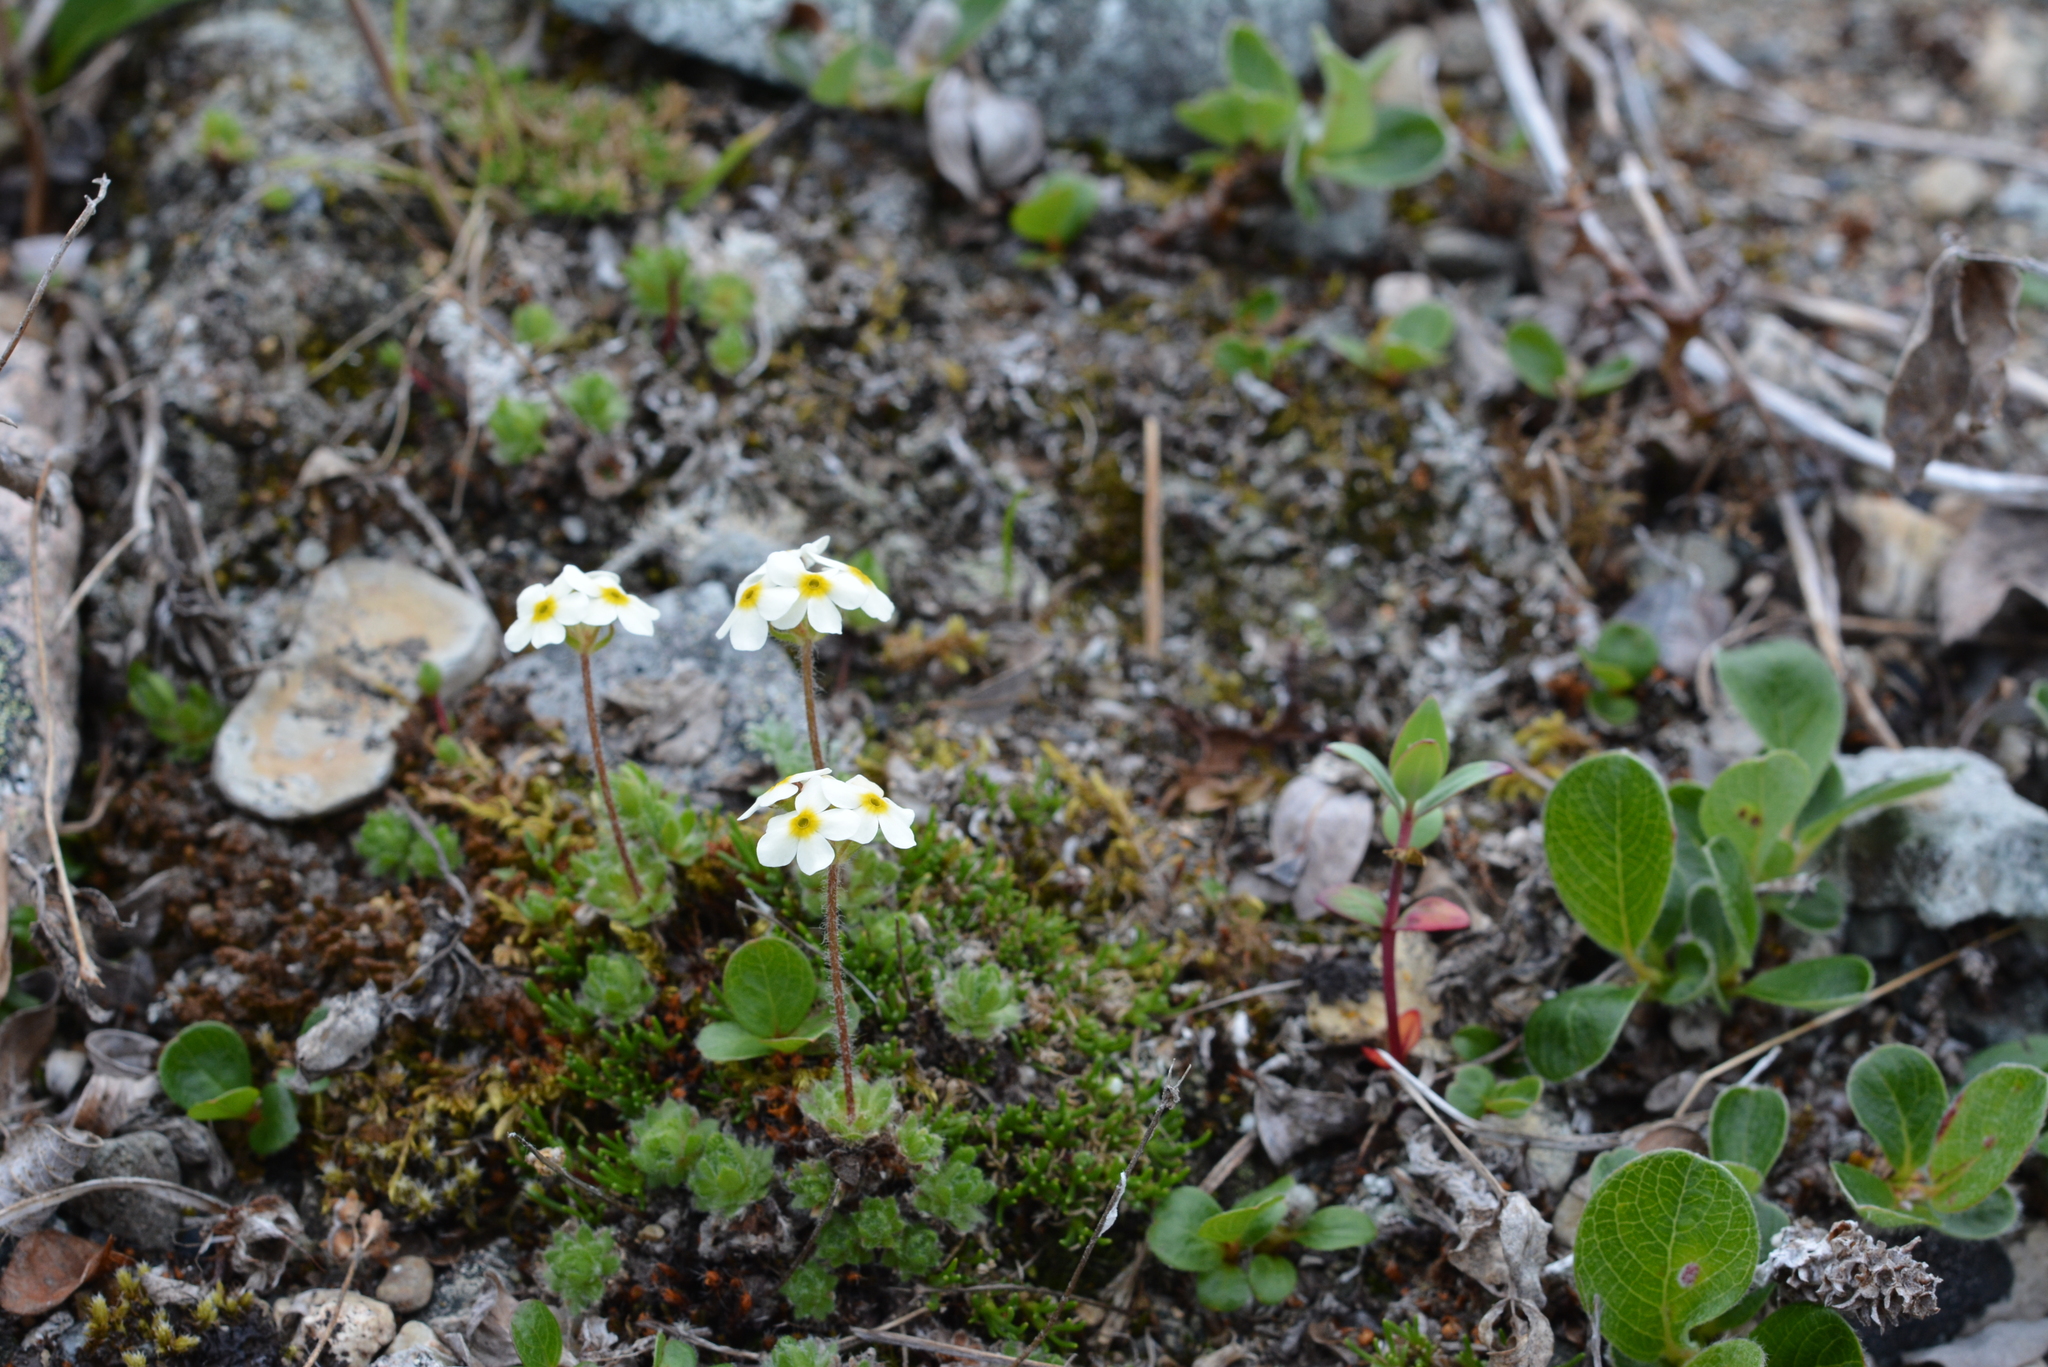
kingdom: Plantae
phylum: Tracheophyta
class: Magnoliopsida
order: Ericales
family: Primulaceae
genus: Androsace
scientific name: Androsace bungeana
